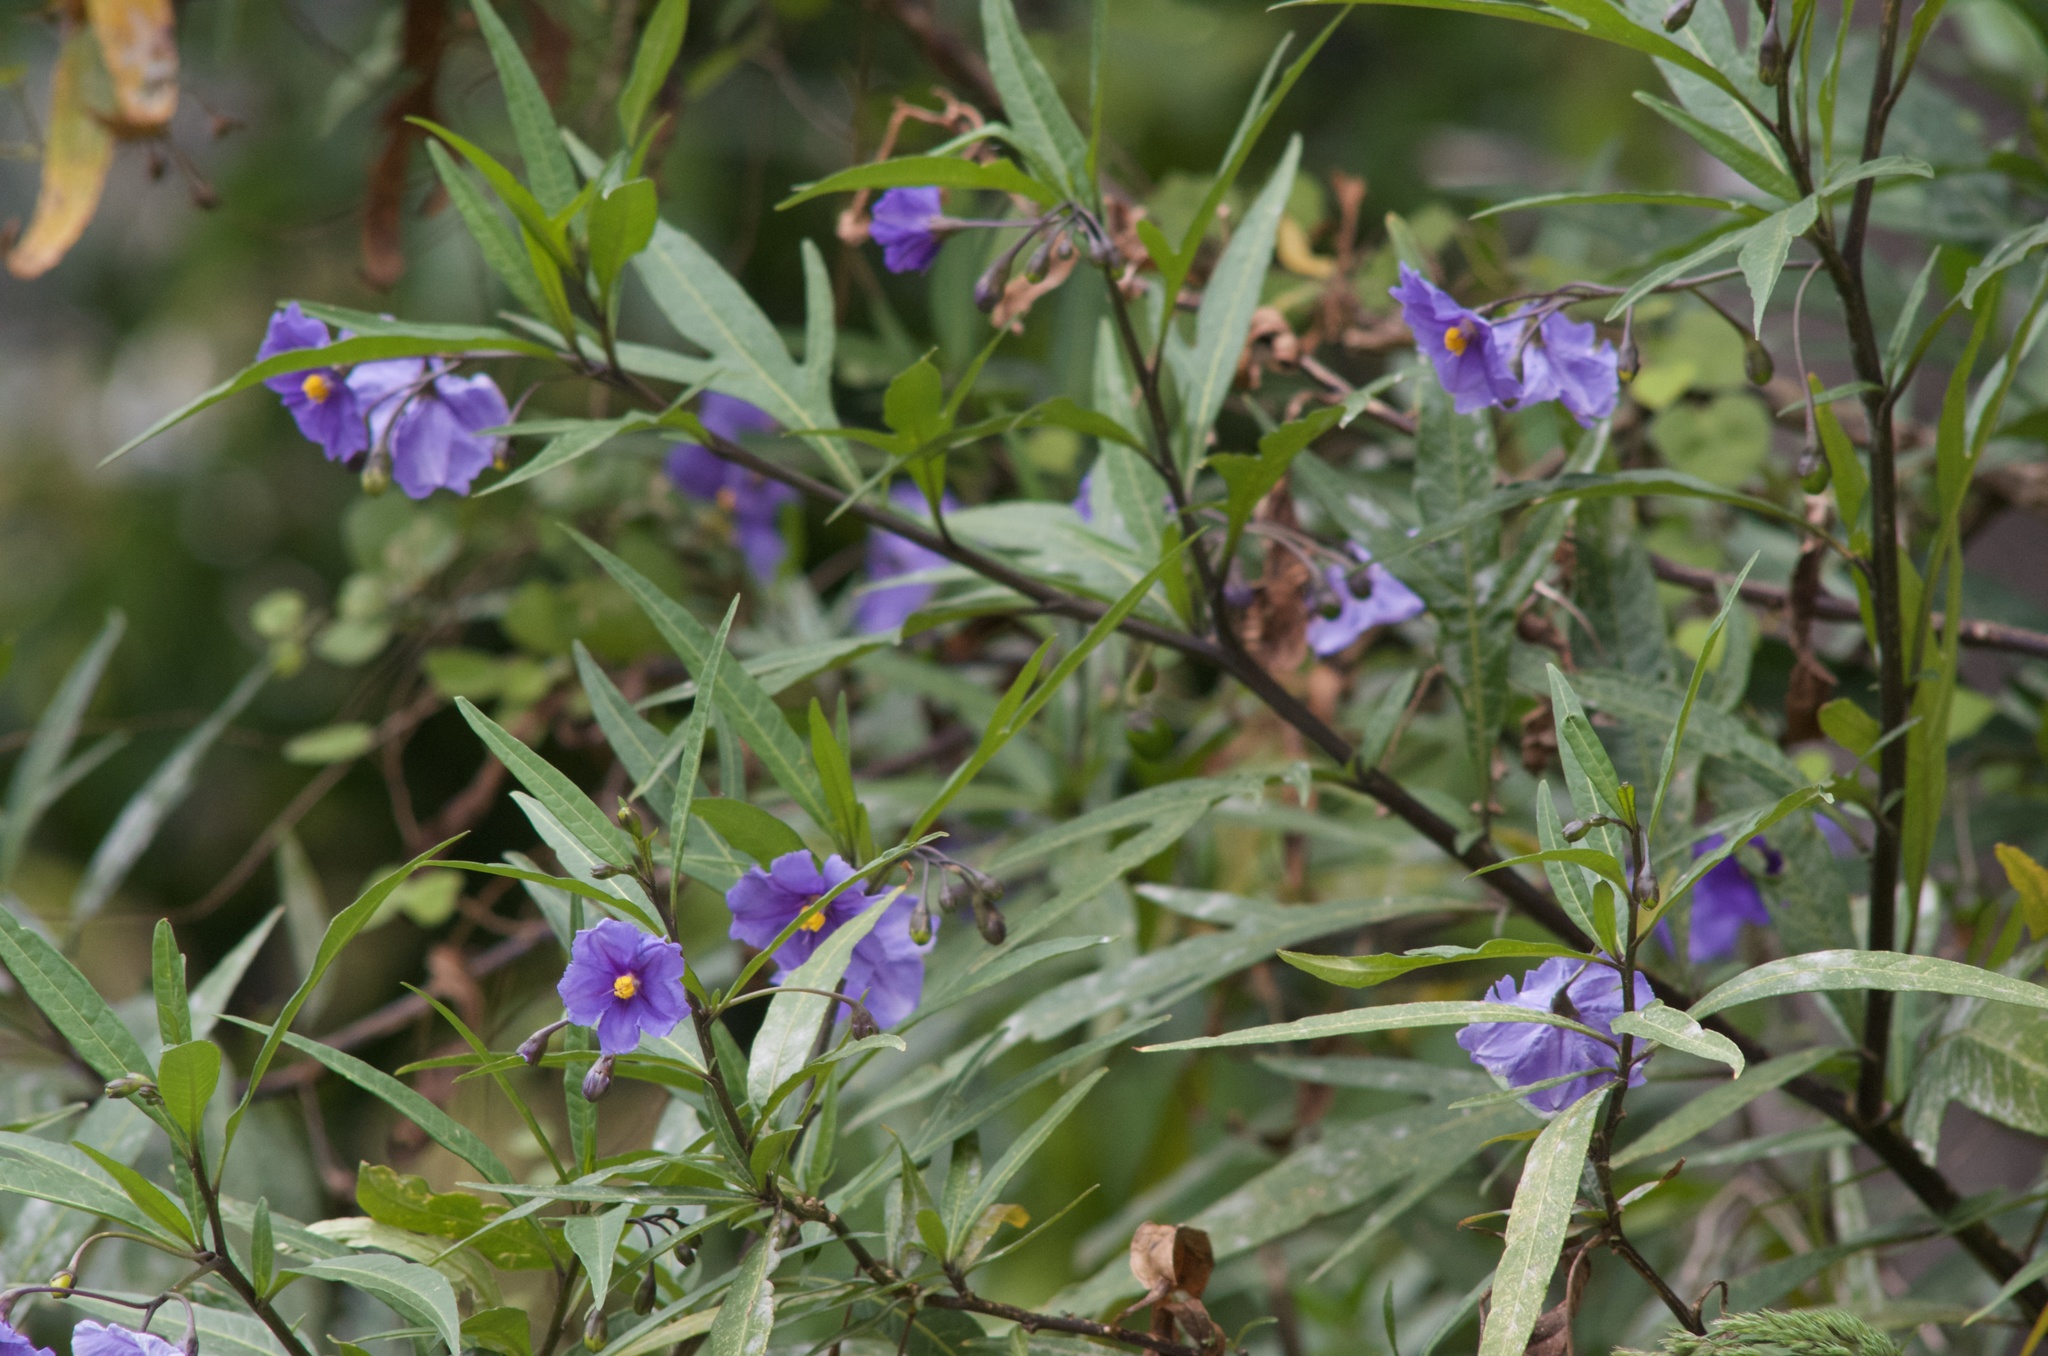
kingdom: Plantae
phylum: Tracheophyta
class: Magnoliopsida
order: Solanales
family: Solanaceae
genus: Solanum
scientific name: Solanum laciniatum
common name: Kangaroo-apple
